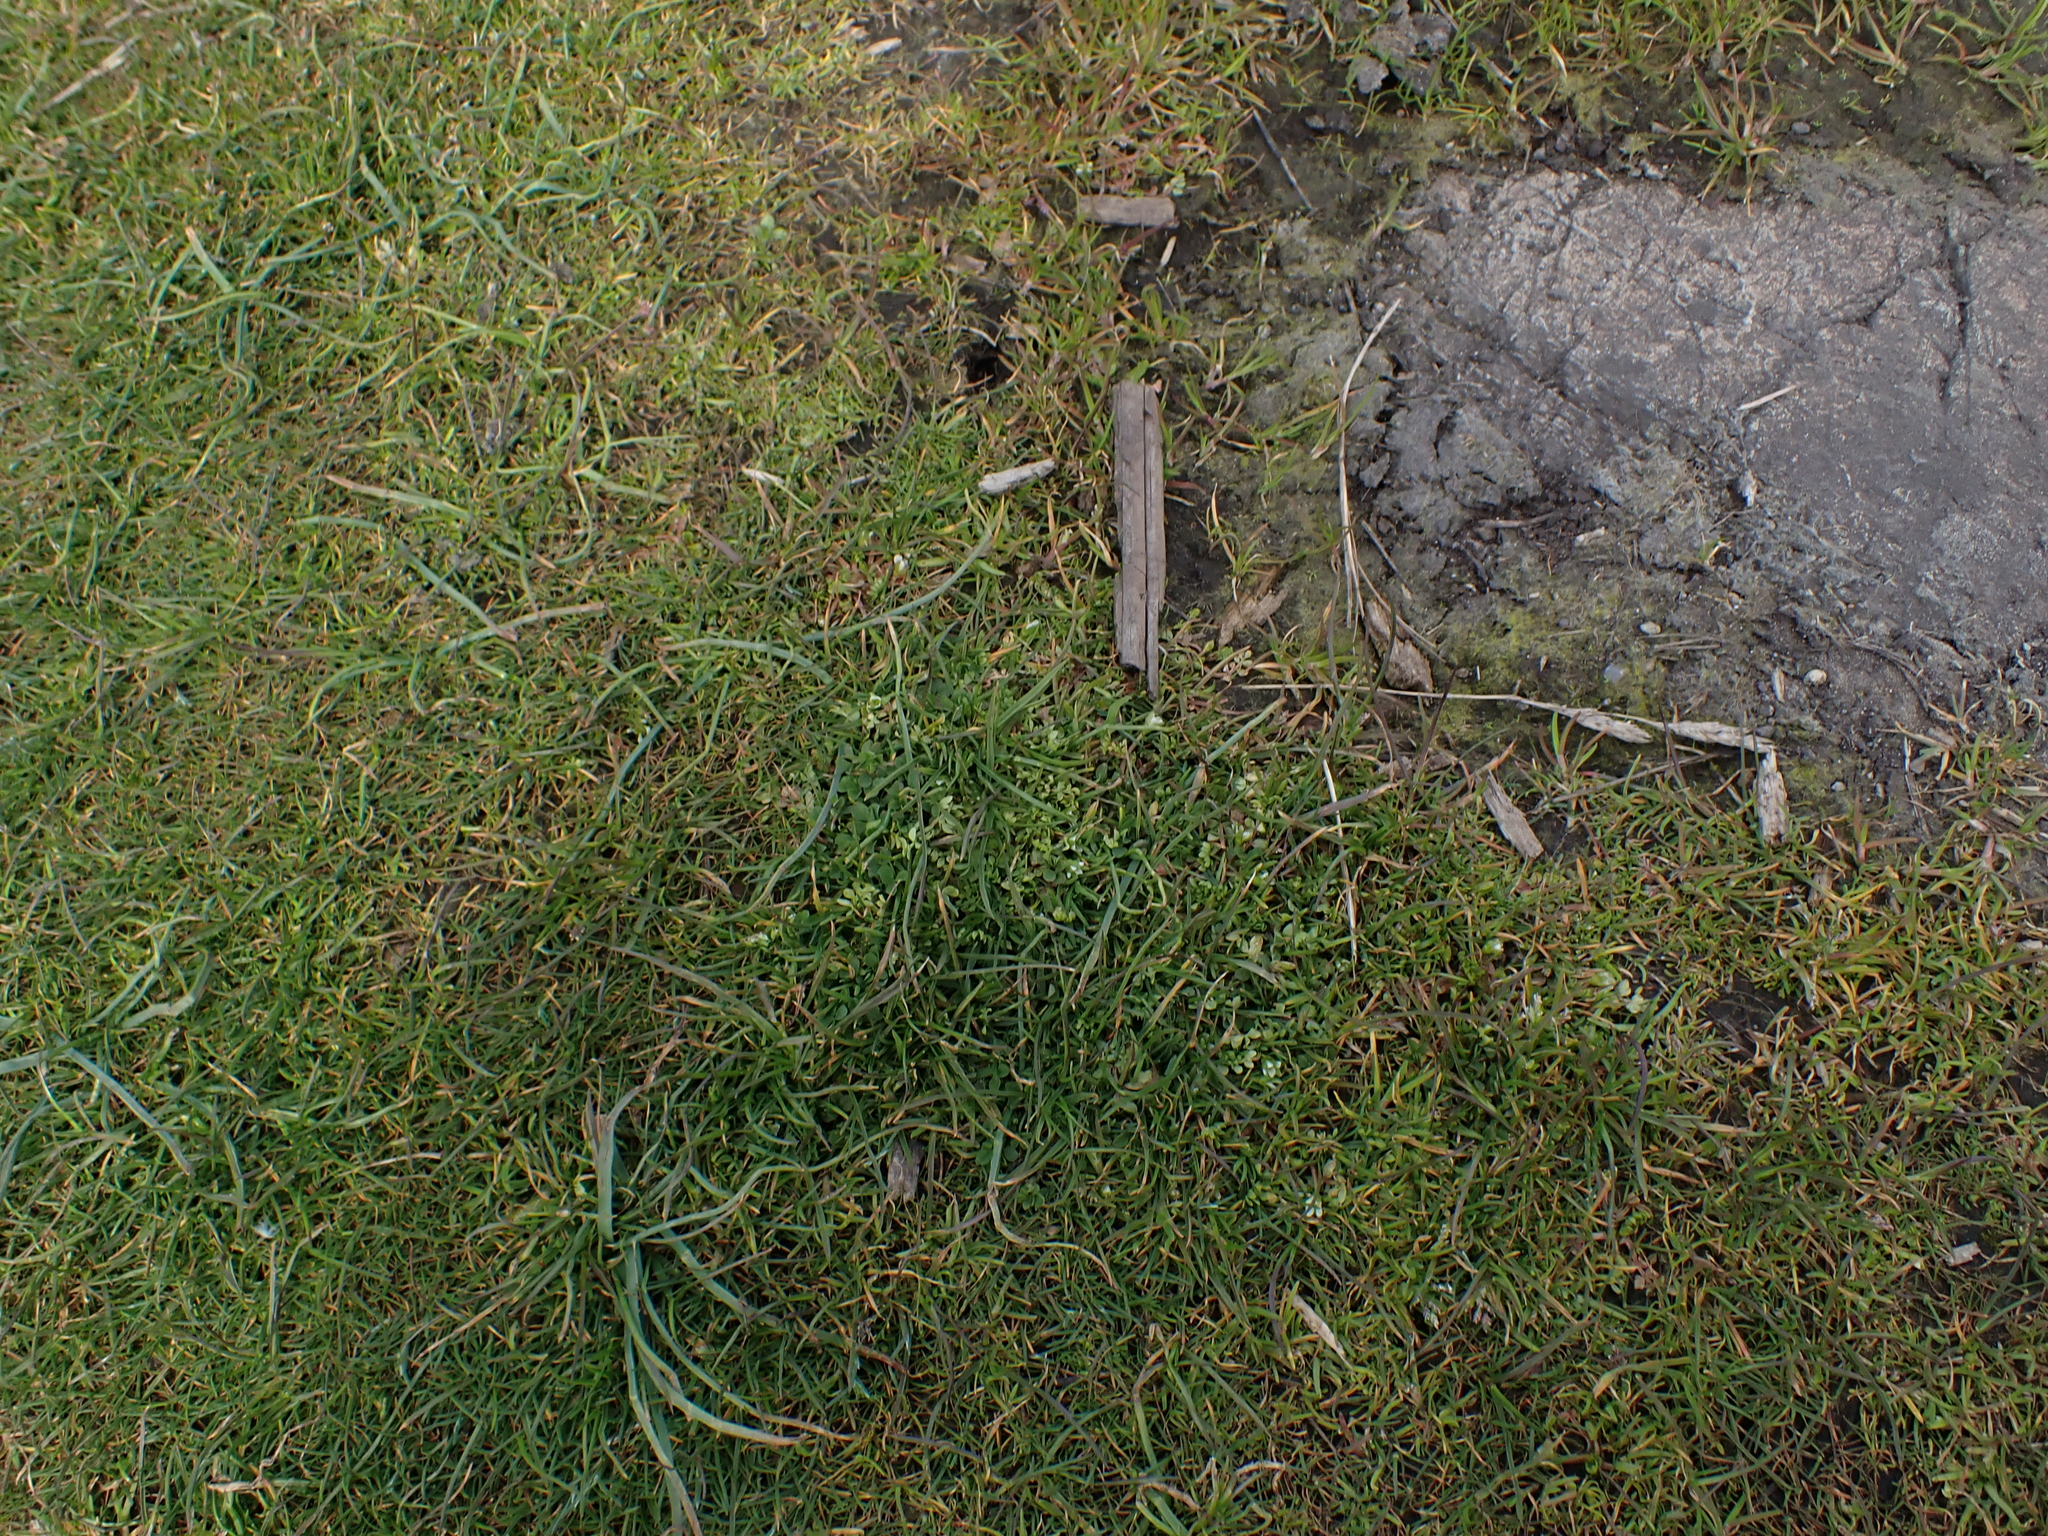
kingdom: Plantae
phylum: Tracheophyta
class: Magnoliopsida
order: Brassicales
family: Limnanthaceae
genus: Limnanthes
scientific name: Limnanthes macounii
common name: Macoun's meadowfoam
